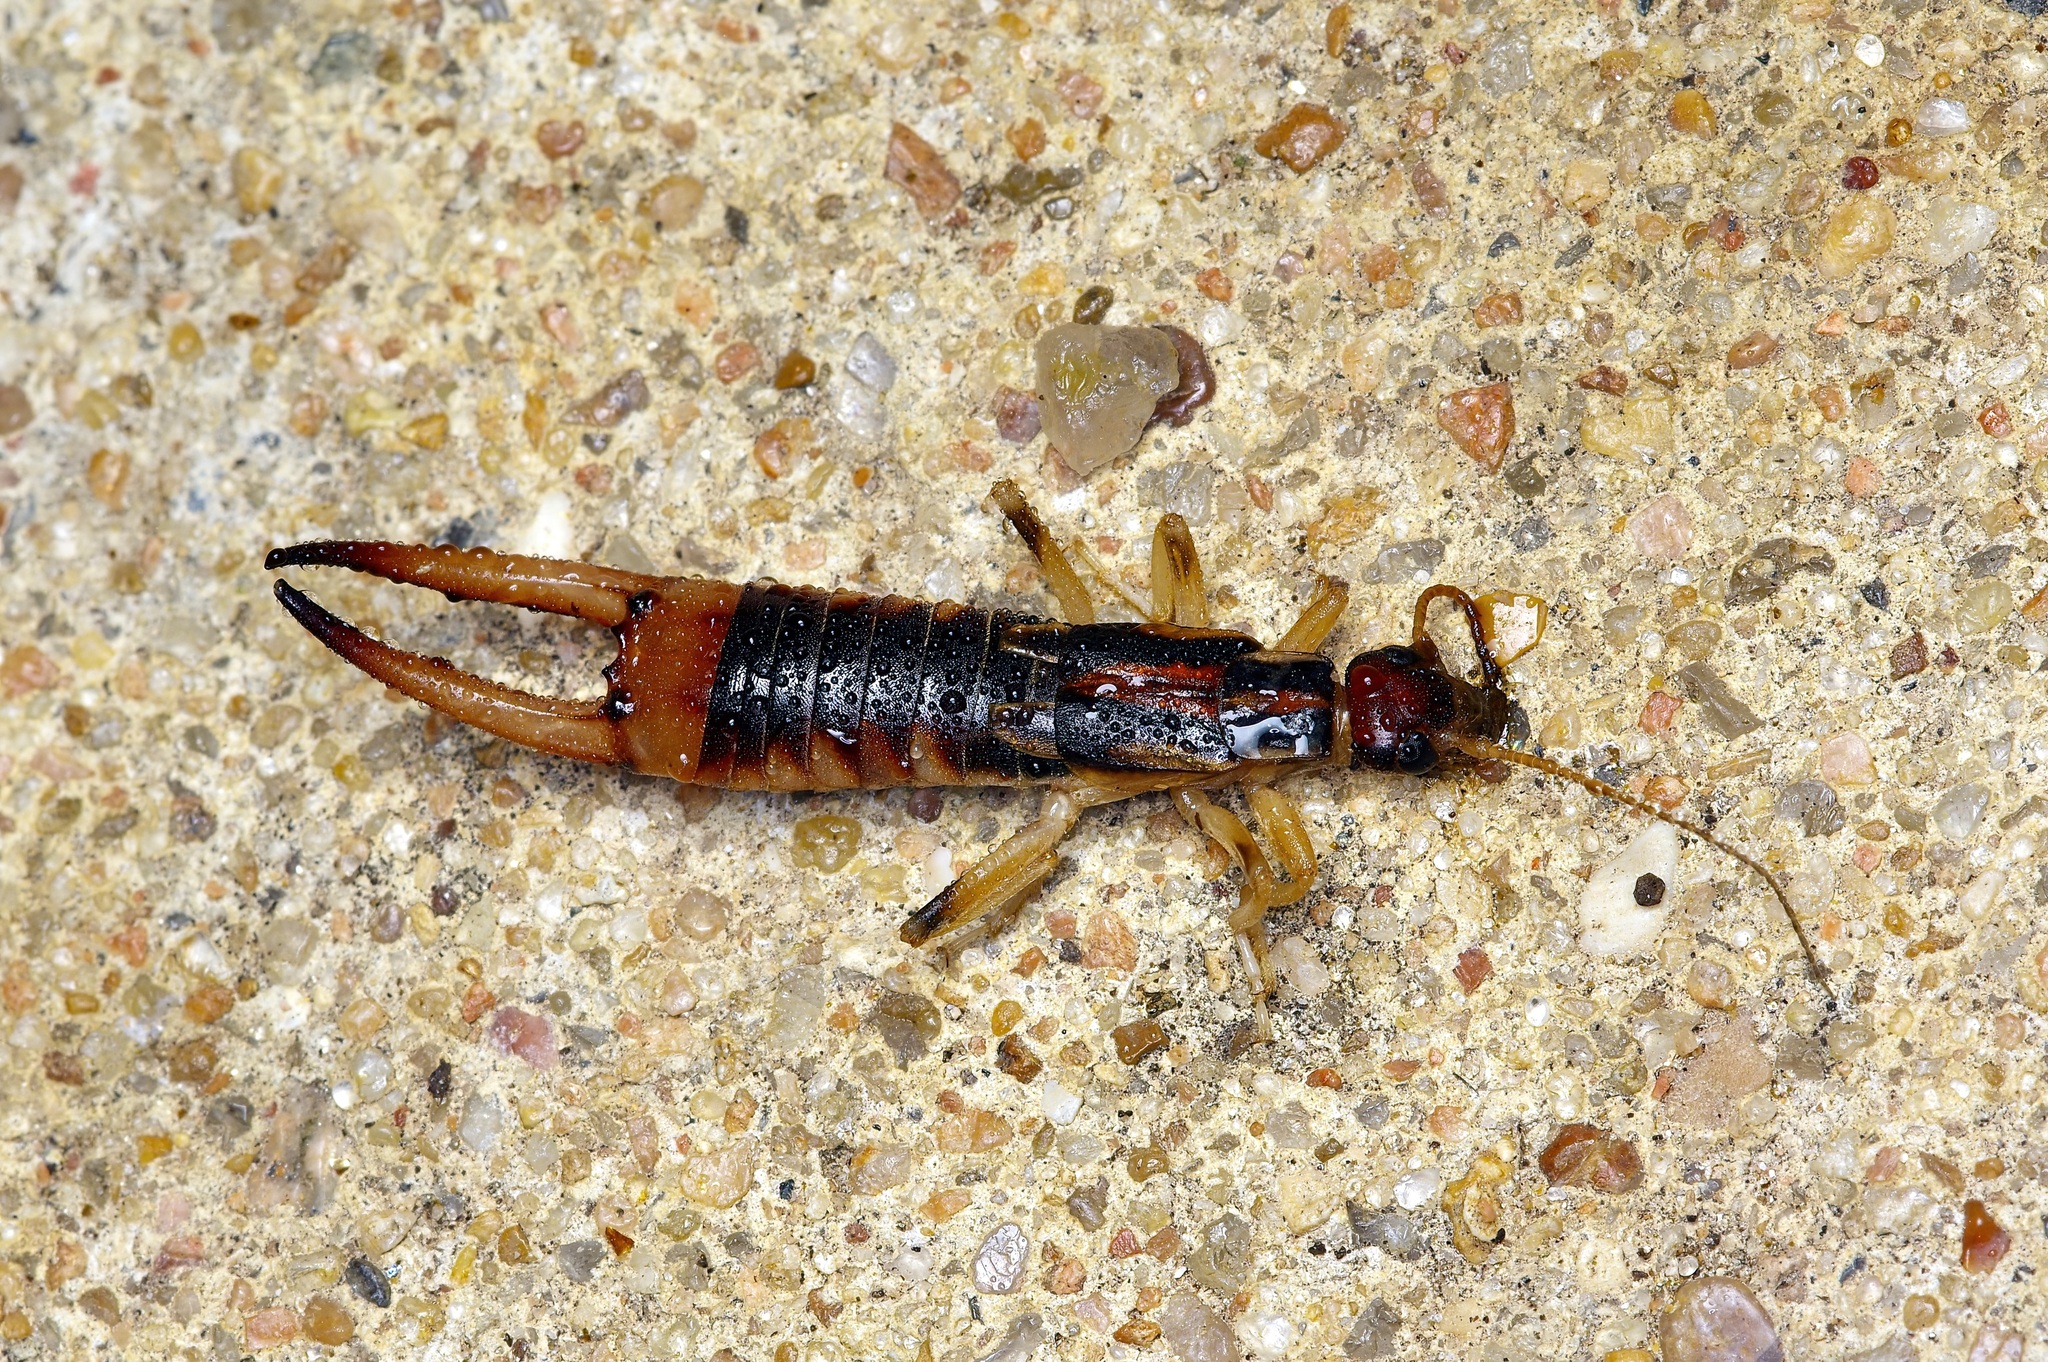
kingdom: Animalia
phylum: Arthropoda
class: Insecta
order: Dermaptera
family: Labiduridae
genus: Labidura
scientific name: Labidura riparia
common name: Striped earwig
